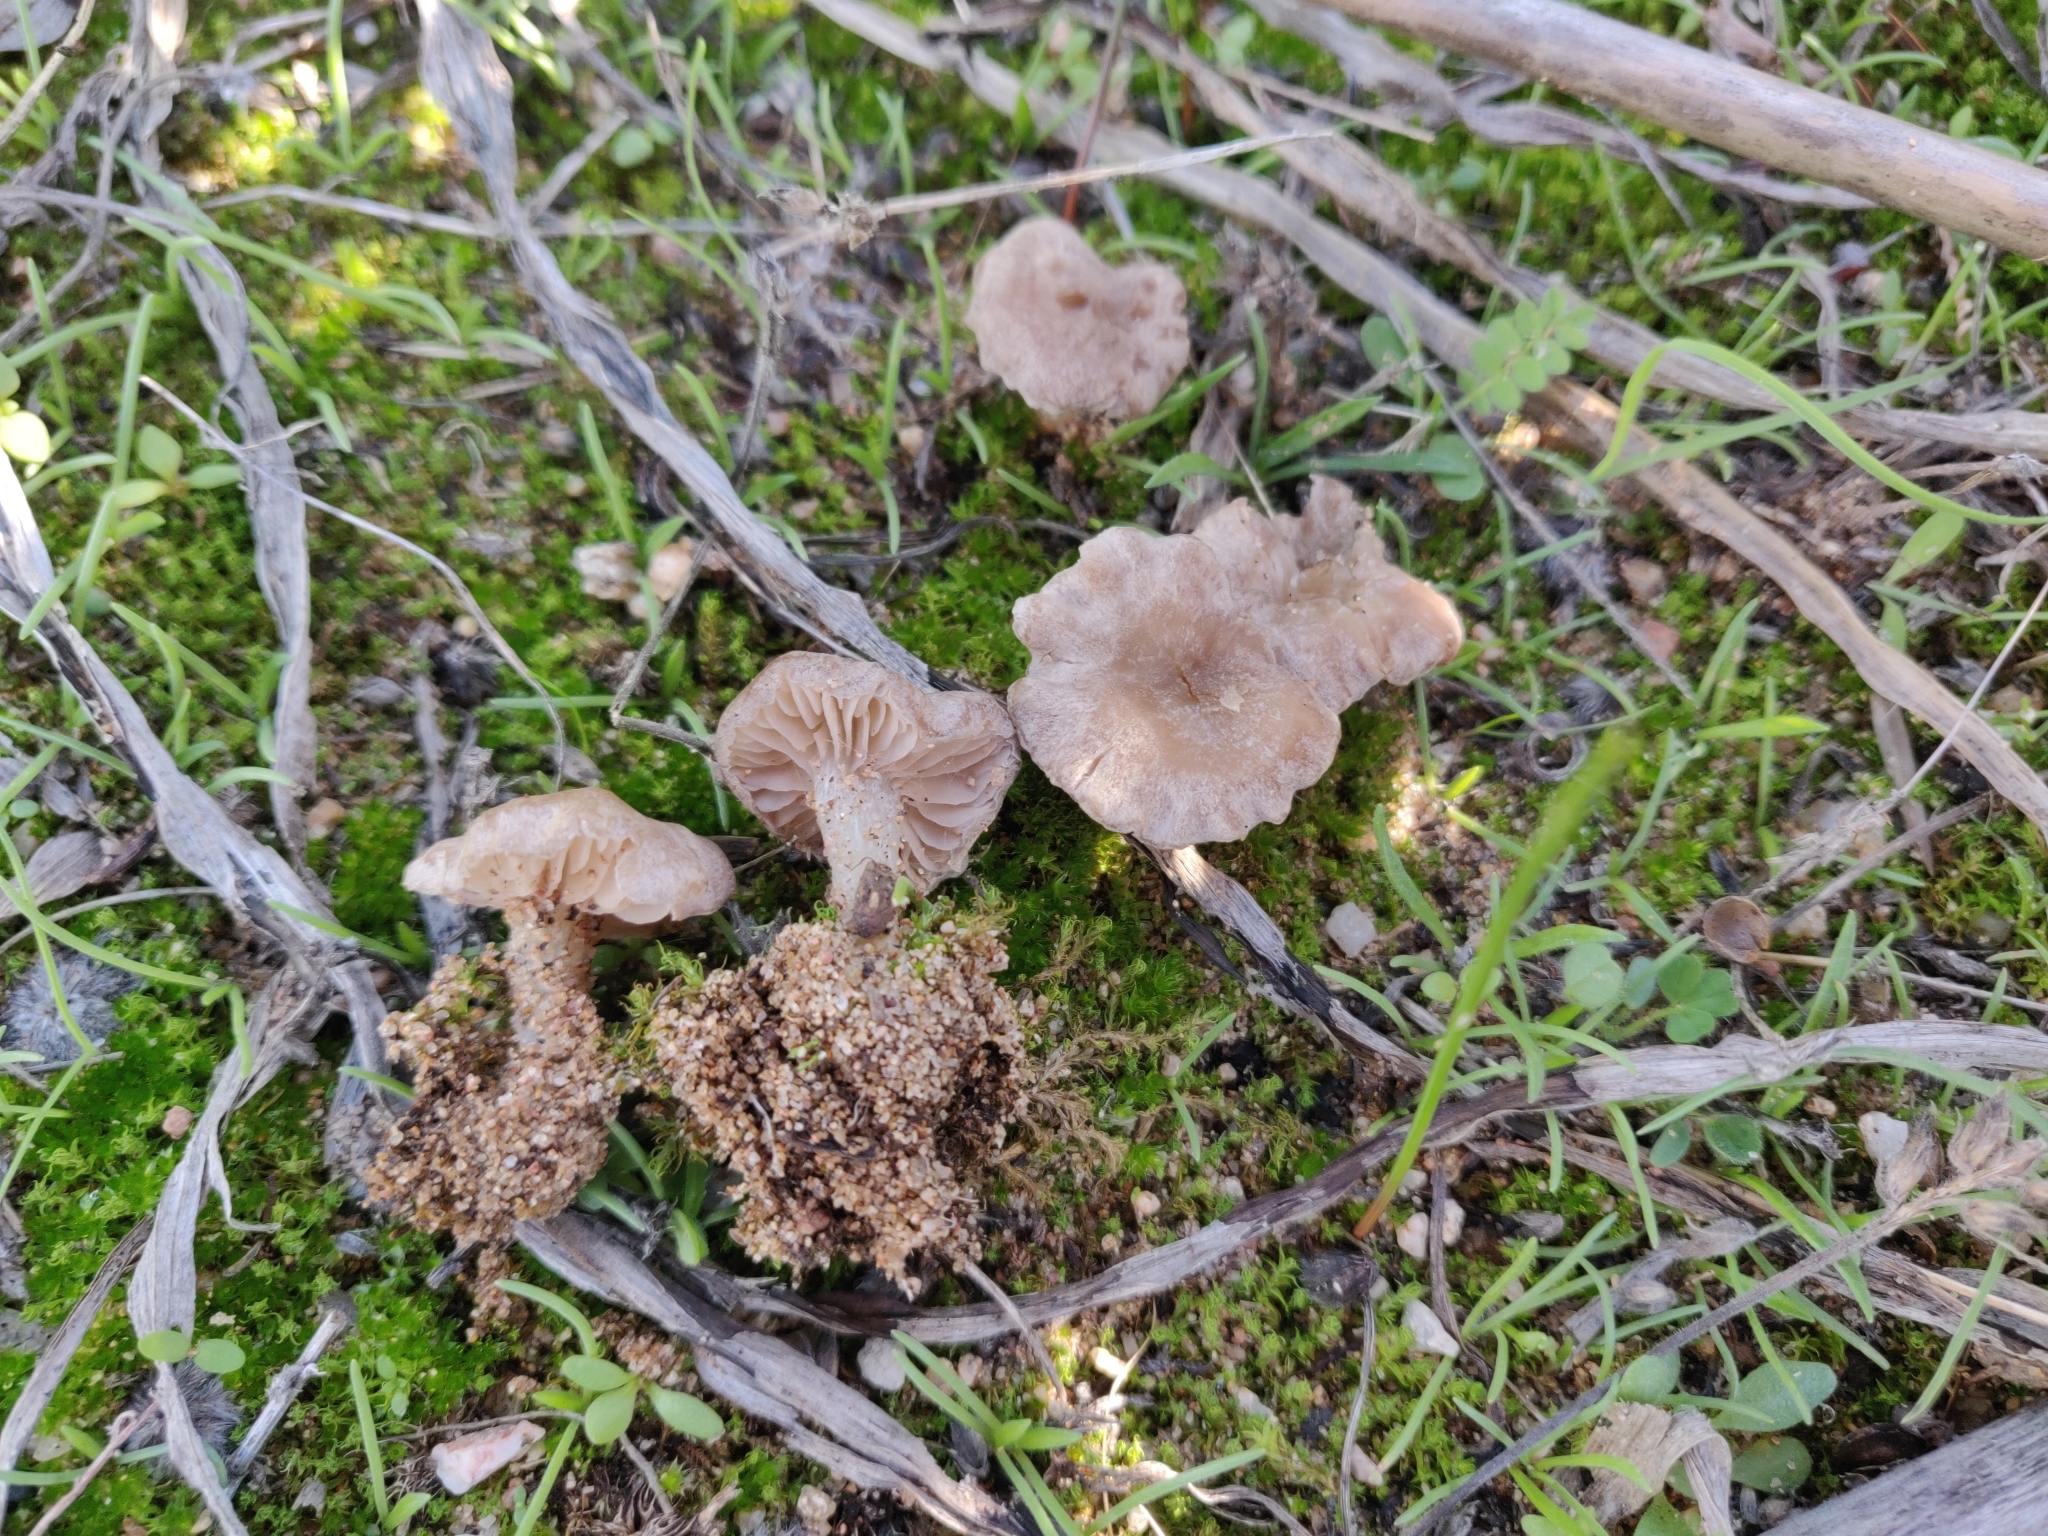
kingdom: Fungi
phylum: Basidiomycota
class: Agaricomycetes
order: Agaricales
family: Entolomataceae
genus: Entoloma
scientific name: Entoloma cettoi
